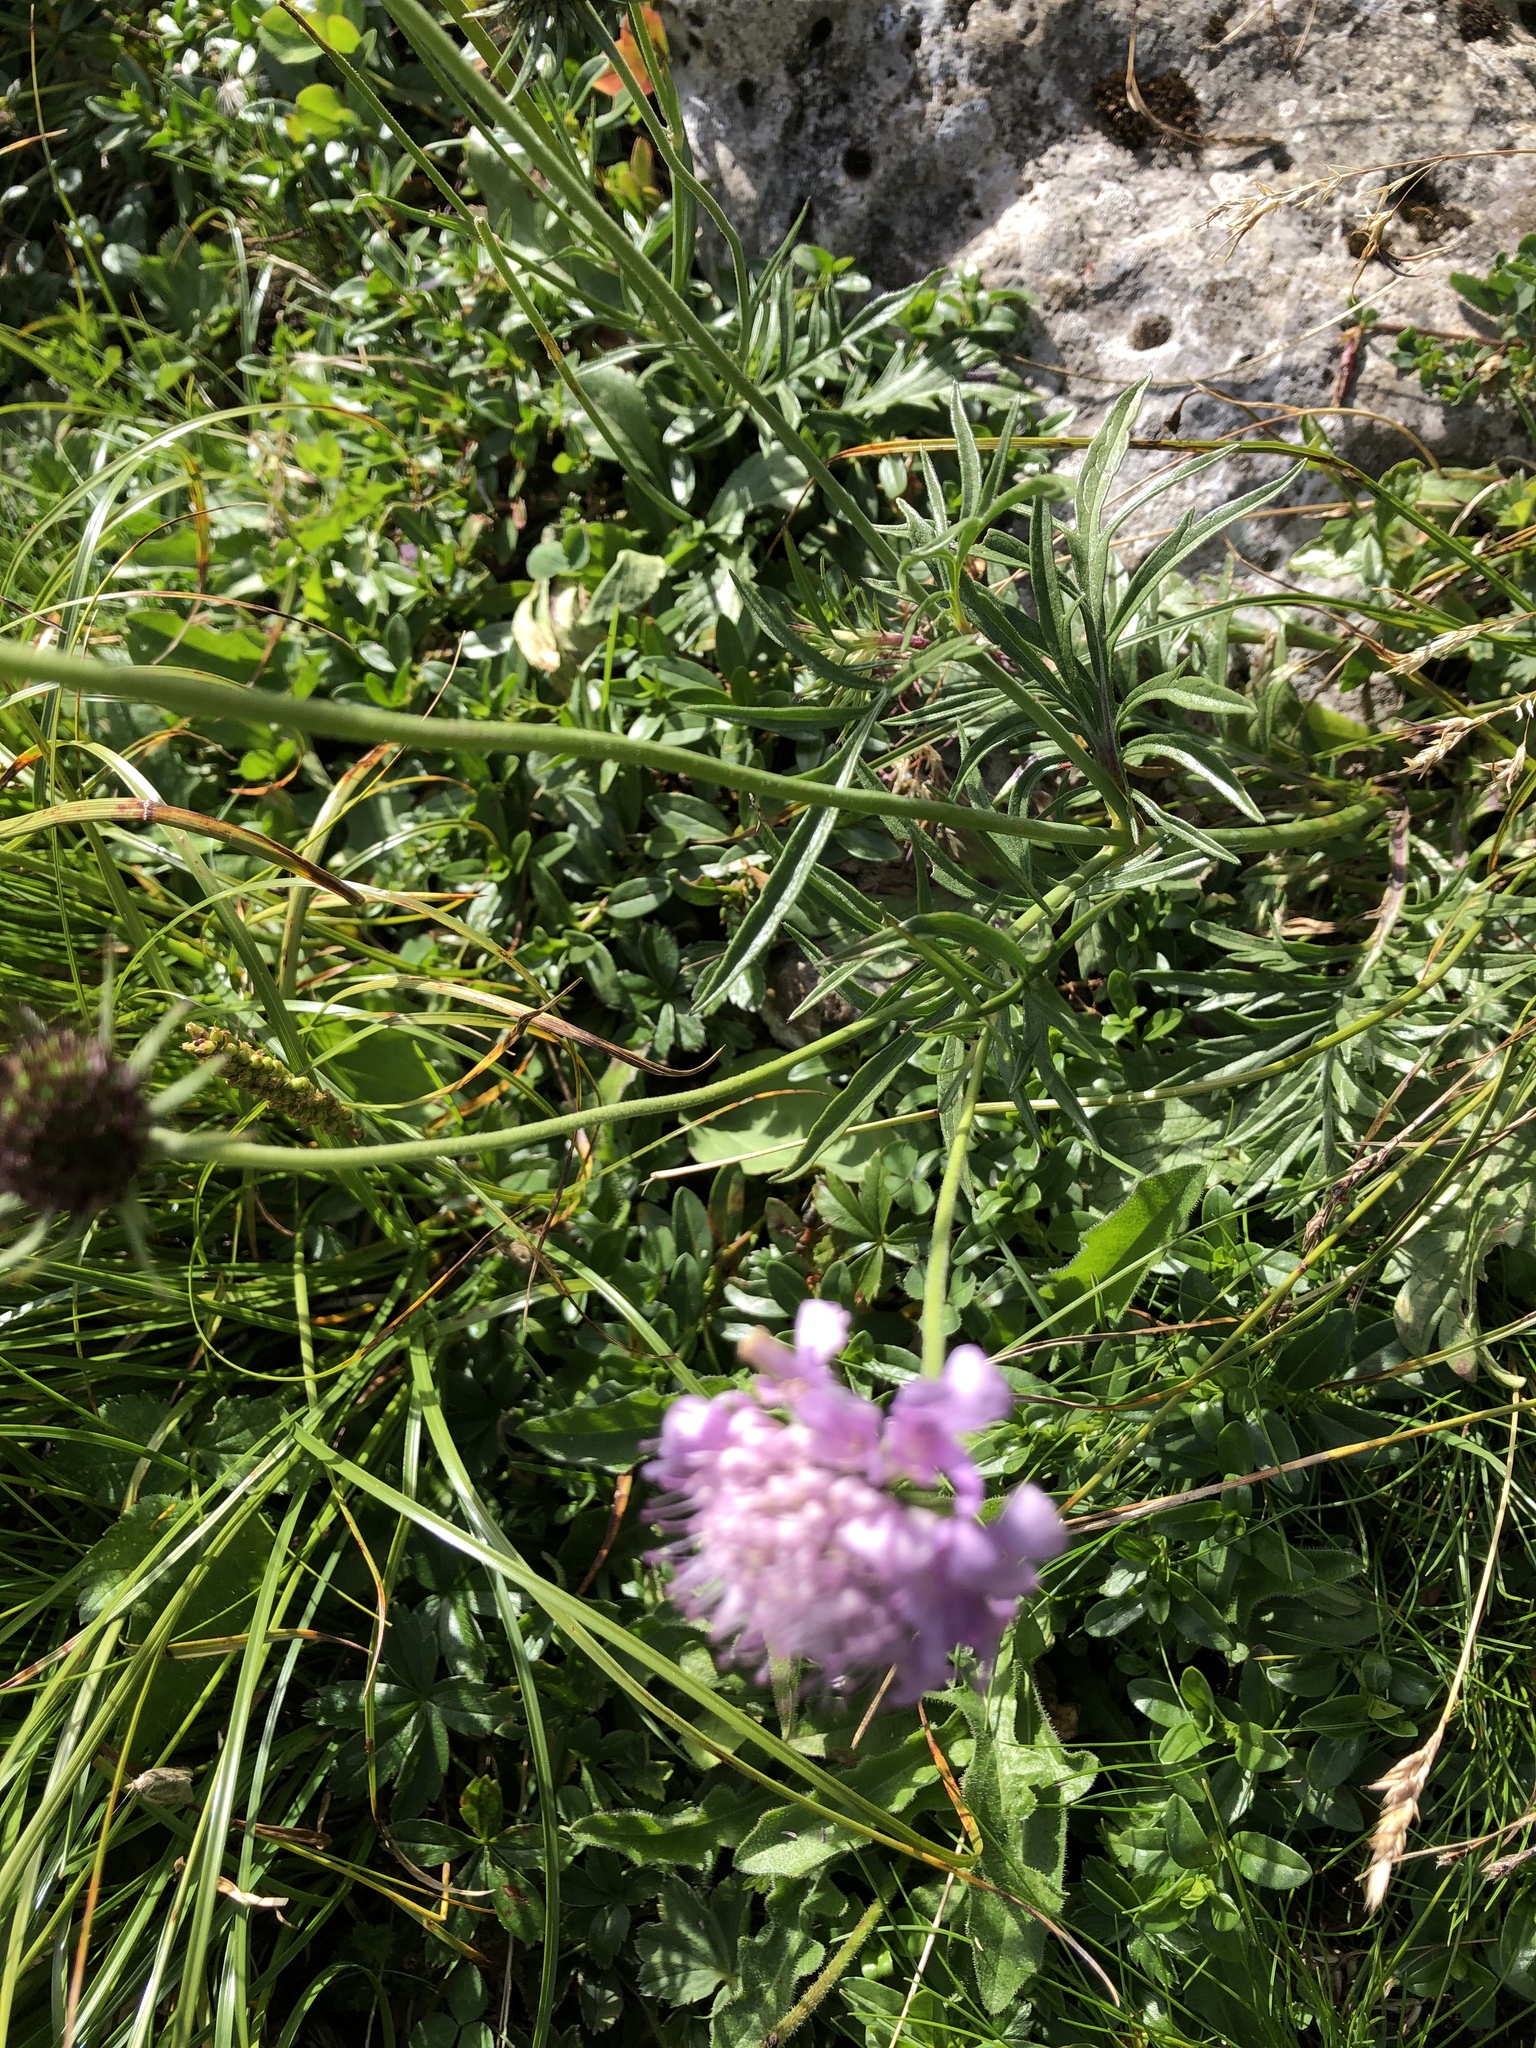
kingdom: Plantae
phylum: Tracheophyta
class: Magnoliopsida
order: Dipsacales
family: Caprifoliaceae
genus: Knautia
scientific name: Knautia arvensis
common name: Field scabiosa
